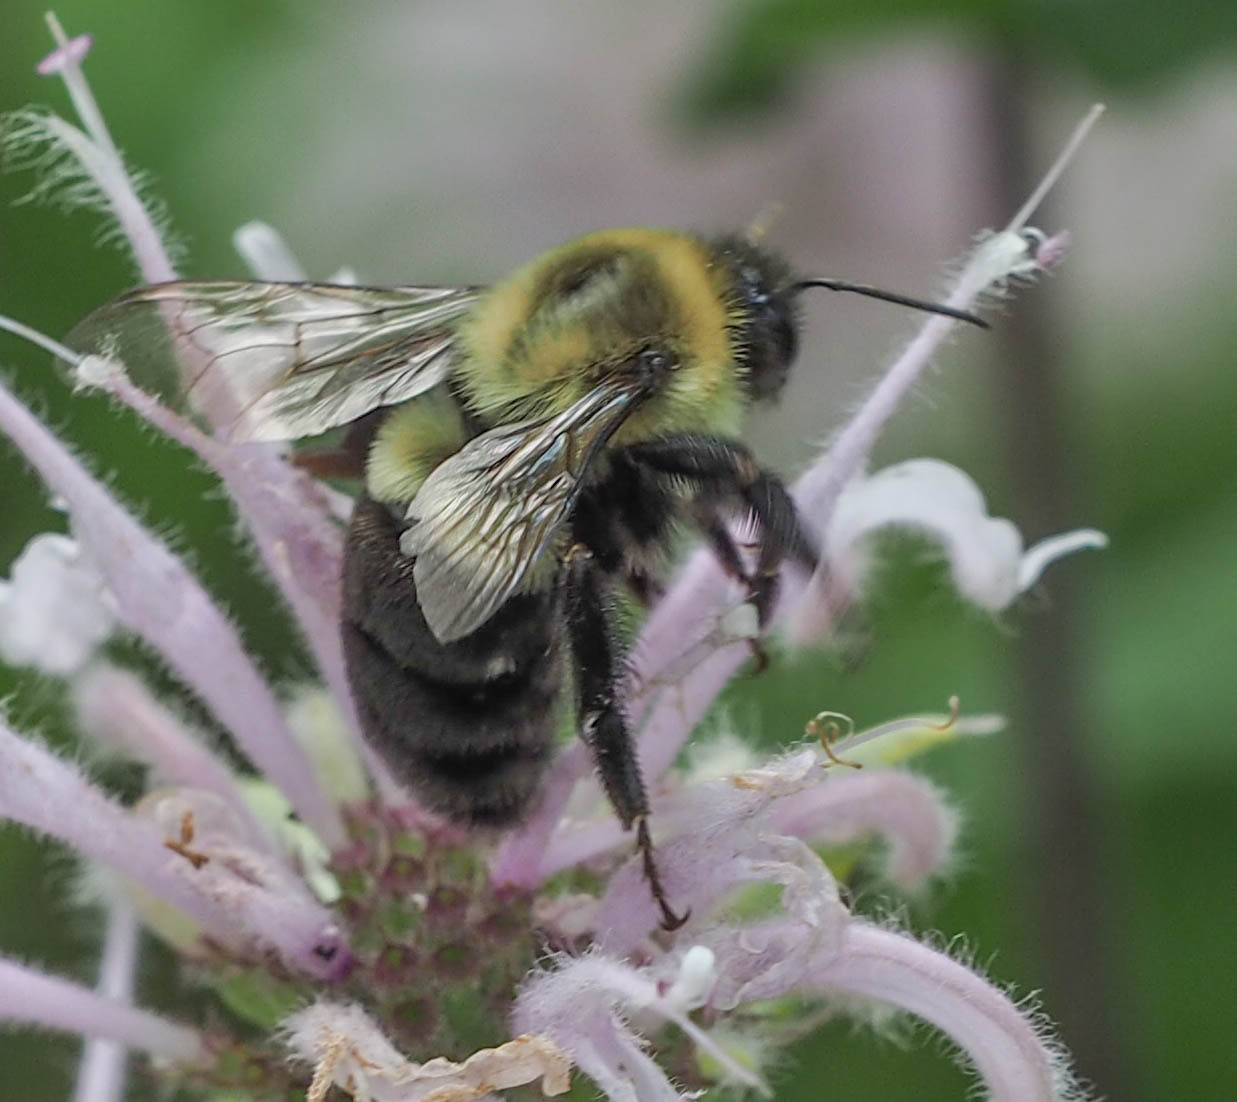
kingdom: Animalia
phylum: Arthropoda
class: Insecta
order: Hymenoptera
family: Apidae
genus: Bombus
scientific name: Bombus impatiens
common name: Common eastern bumble bee
